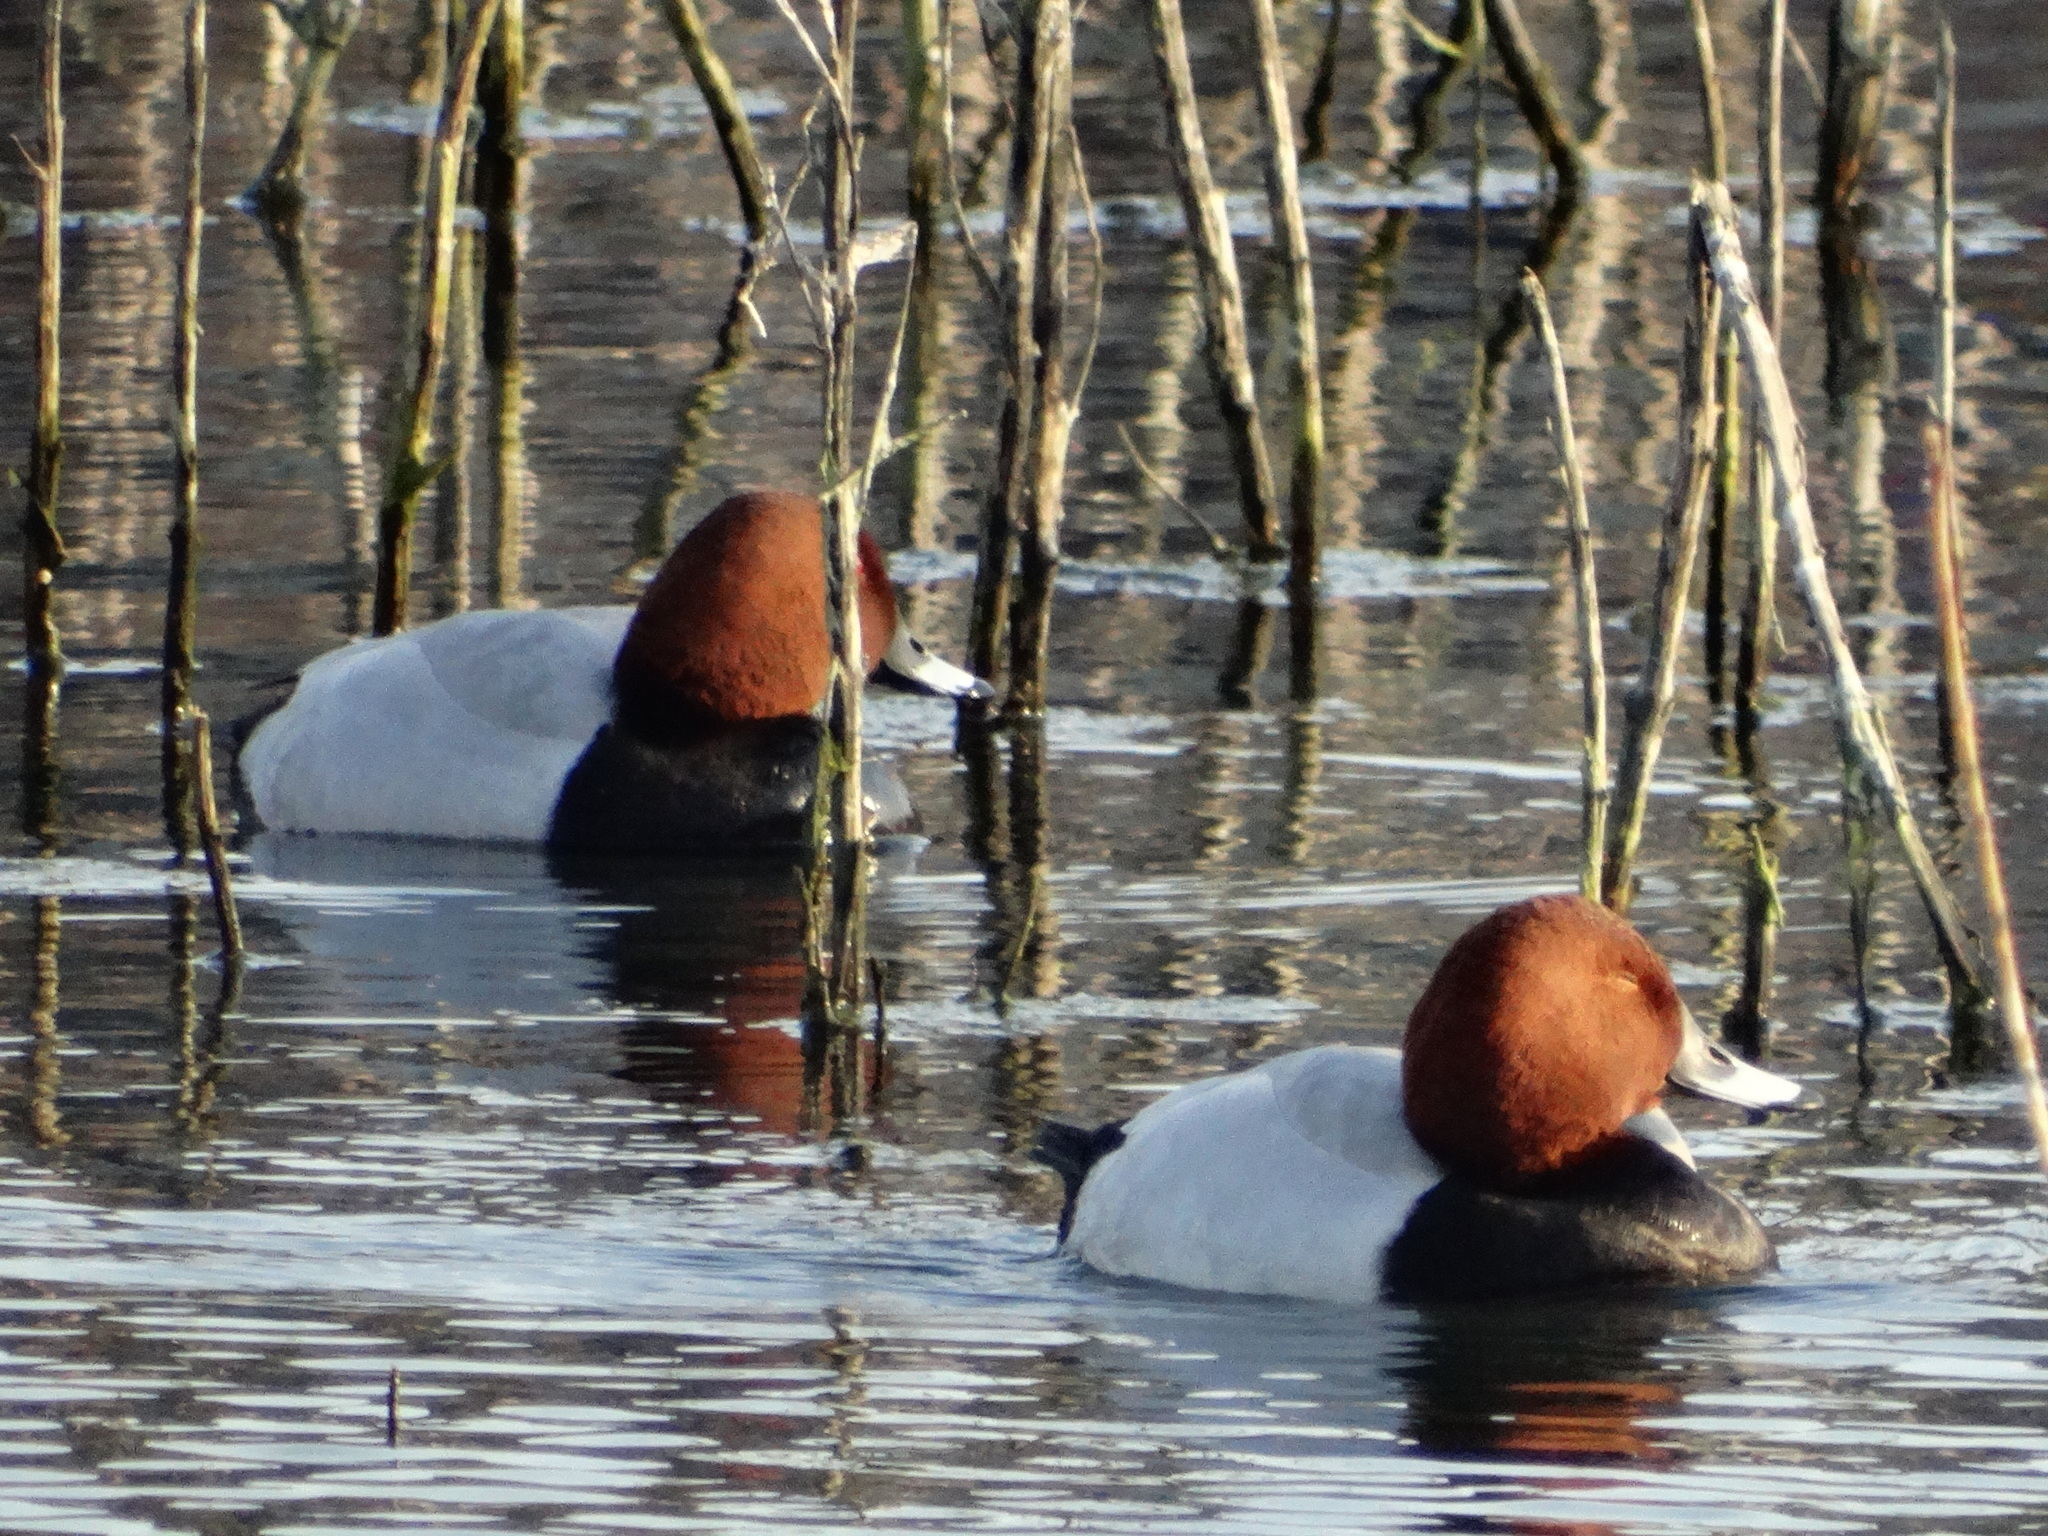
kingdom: Animalia
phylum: Chordata
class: Aves
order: Anseriformes
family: Anatidae
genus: Aythya
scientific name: Aythya ferina
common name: Common pochard
